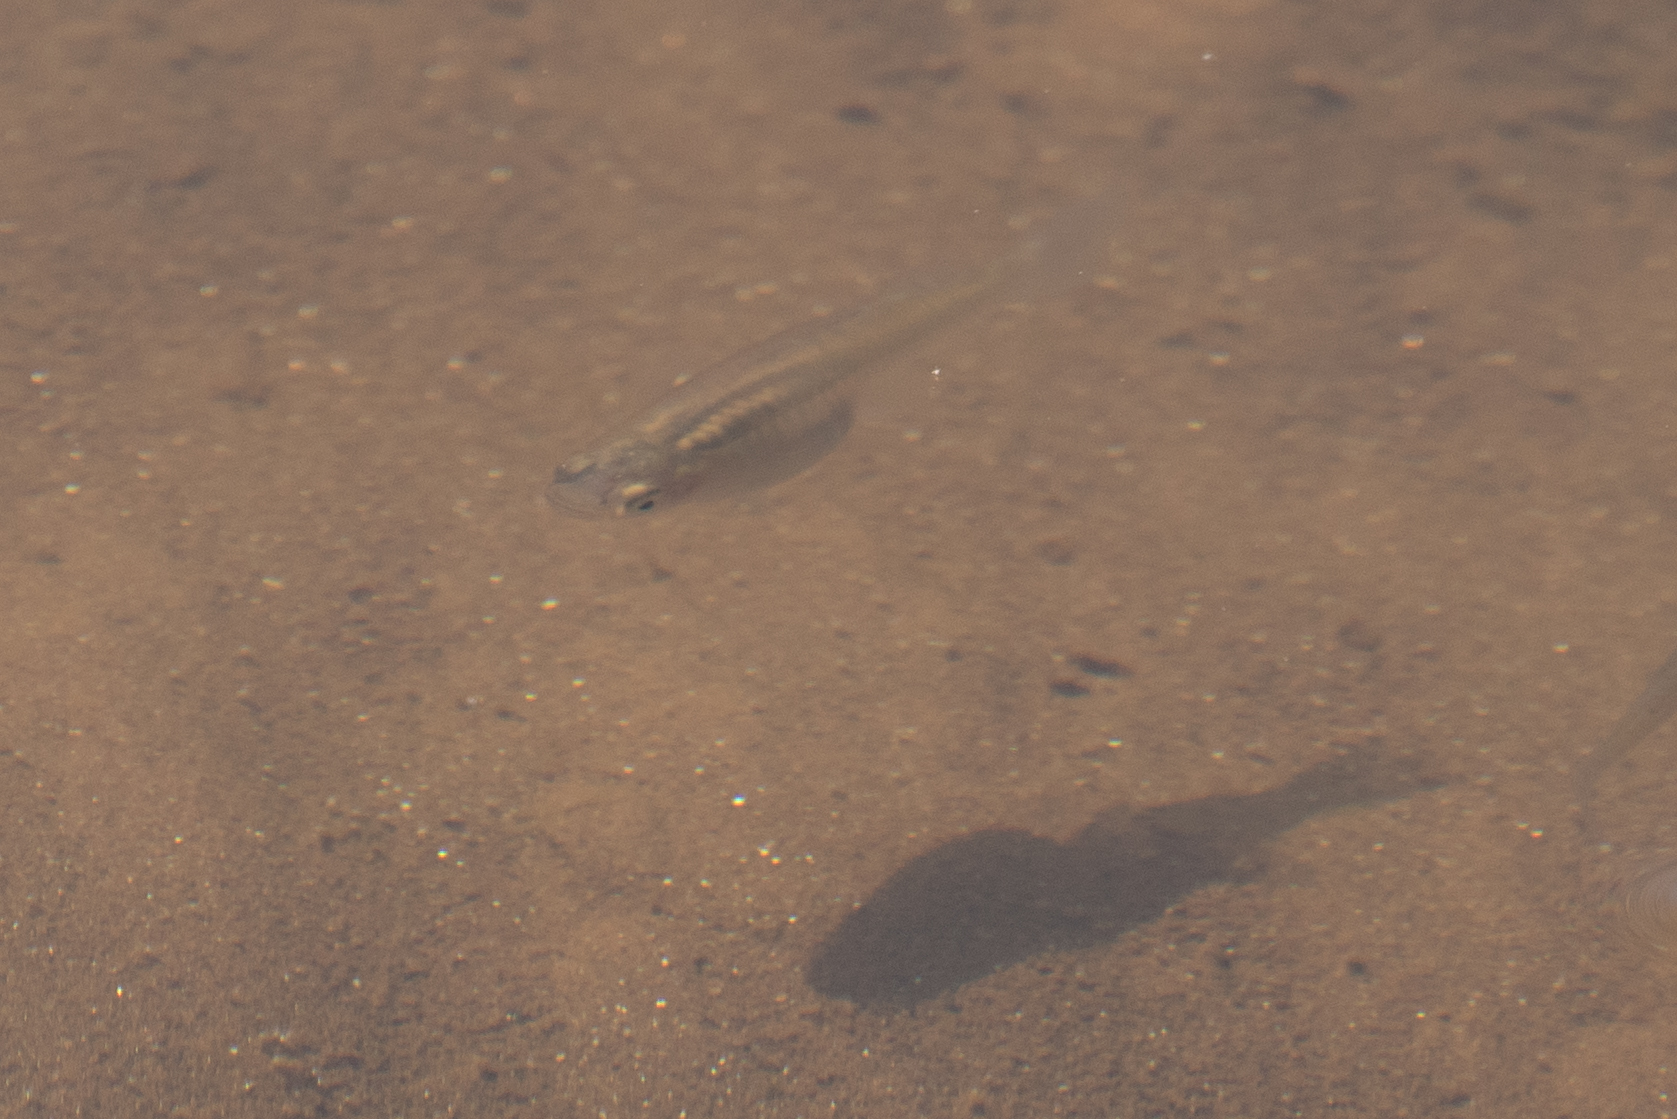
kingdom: Animalia
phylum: Chordata
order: Cyprinodontiformes
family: Poeciliidae
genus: Gambusia
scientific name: Gambusia holbrooki
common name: Eastern mosquitofish
